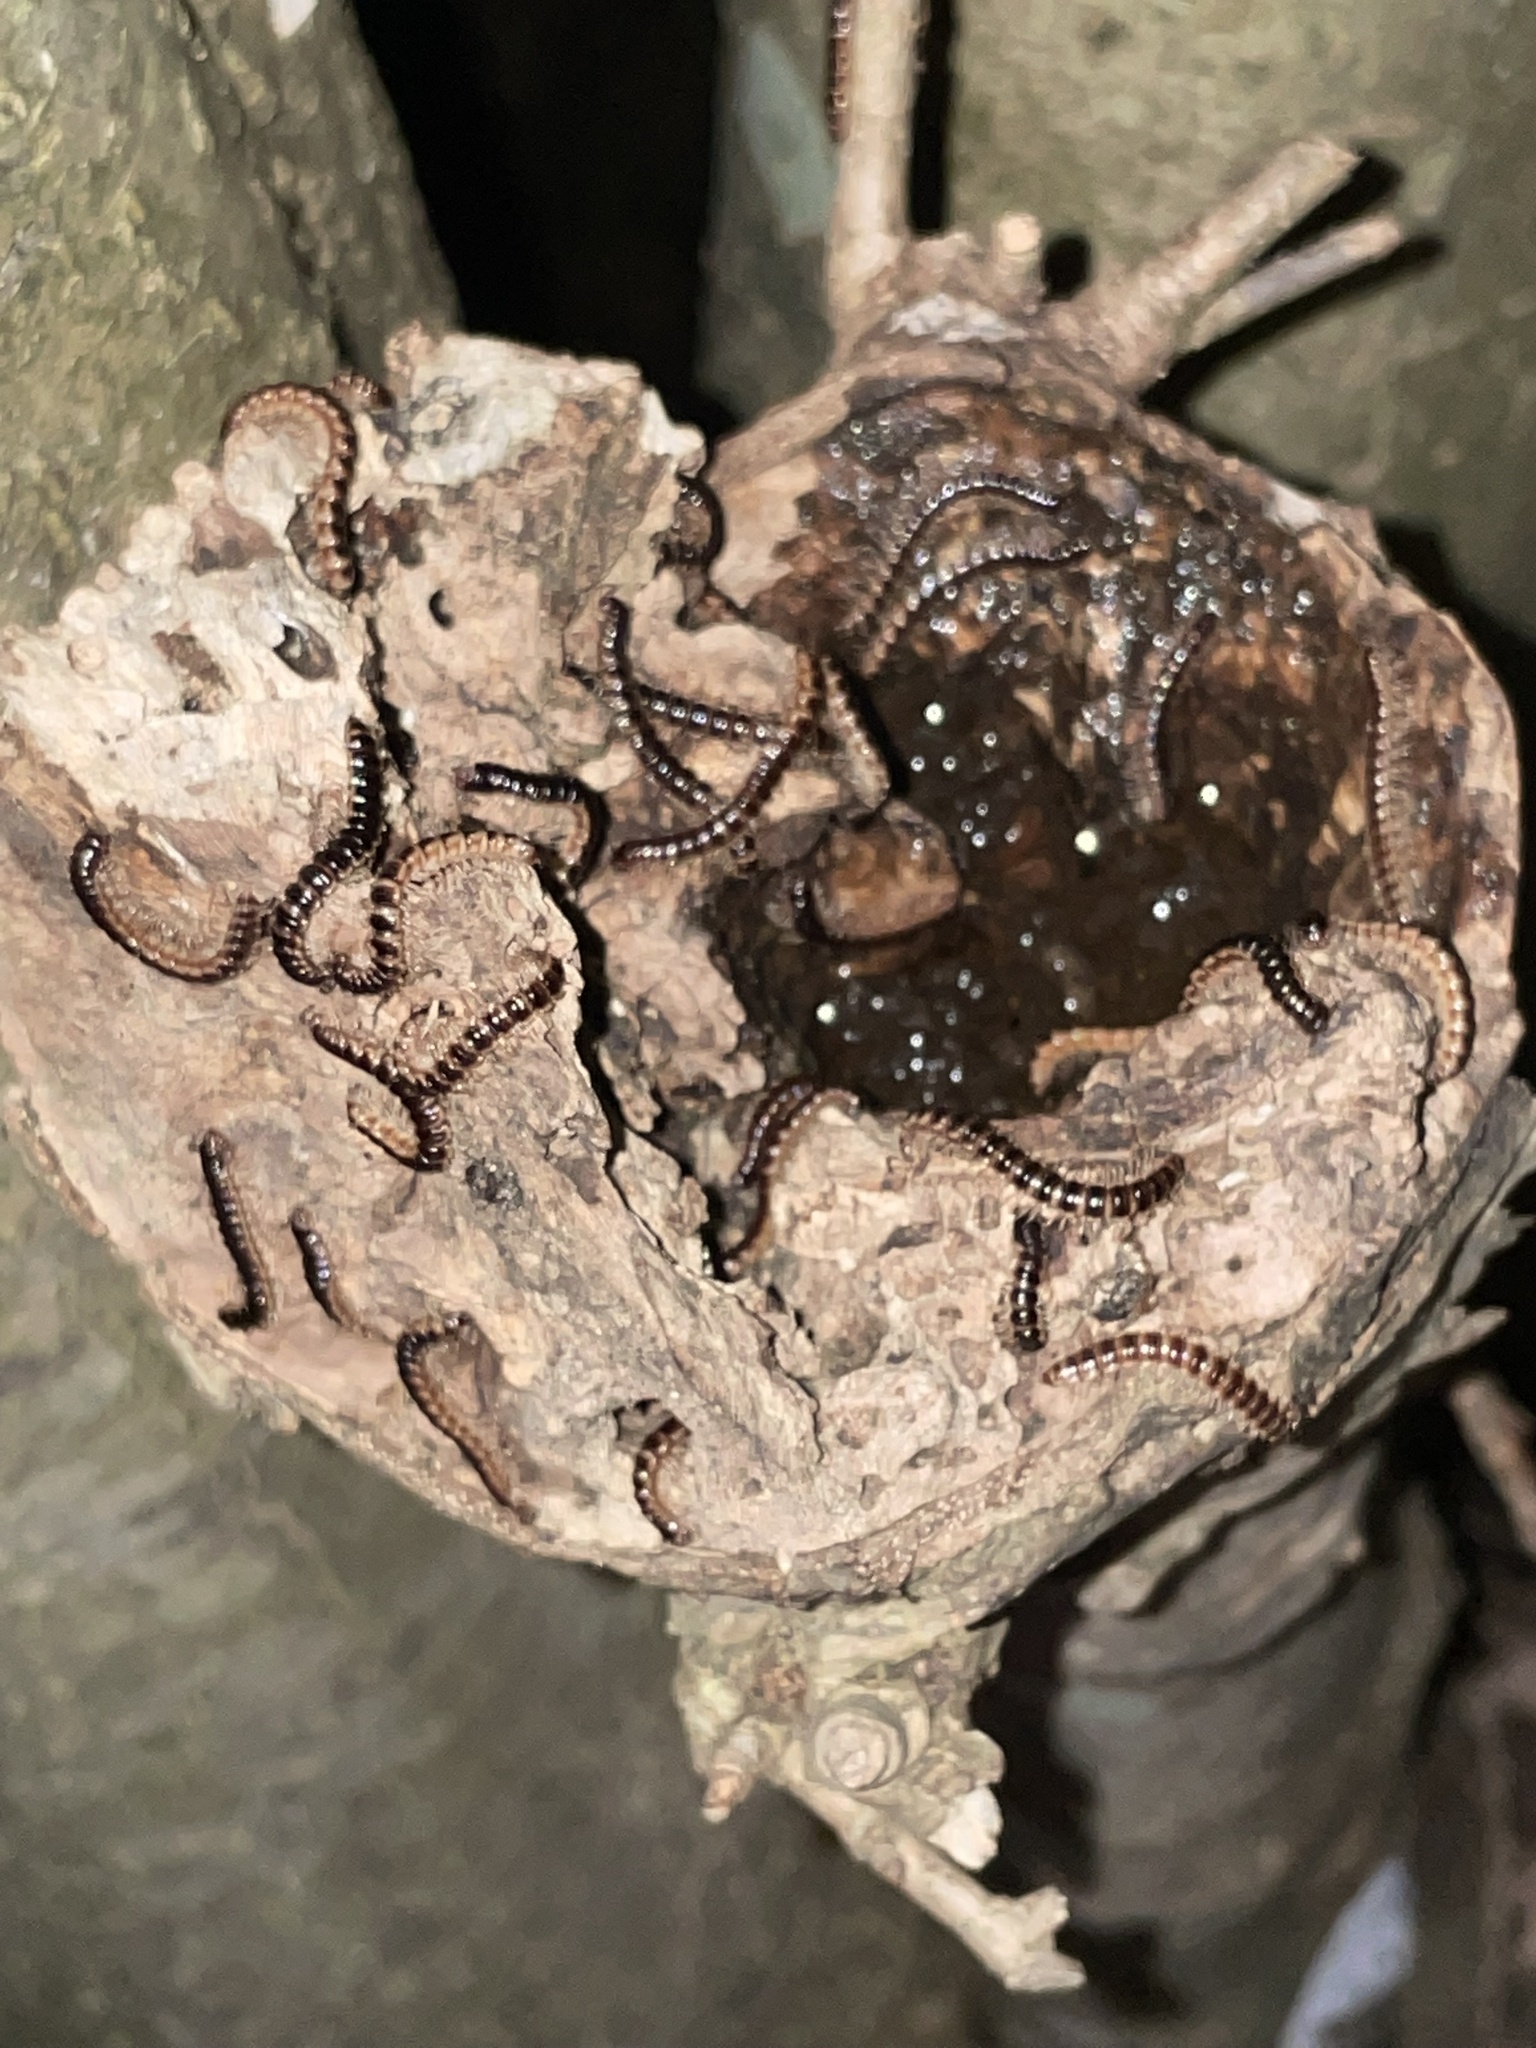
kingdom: Animalia
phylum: Arthropoda
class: Diplopoda
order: Polydesmida
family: Paradoxosomatidae
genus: Oxidus
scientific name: Oxidus gracilis
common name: Greenhouse millipede
